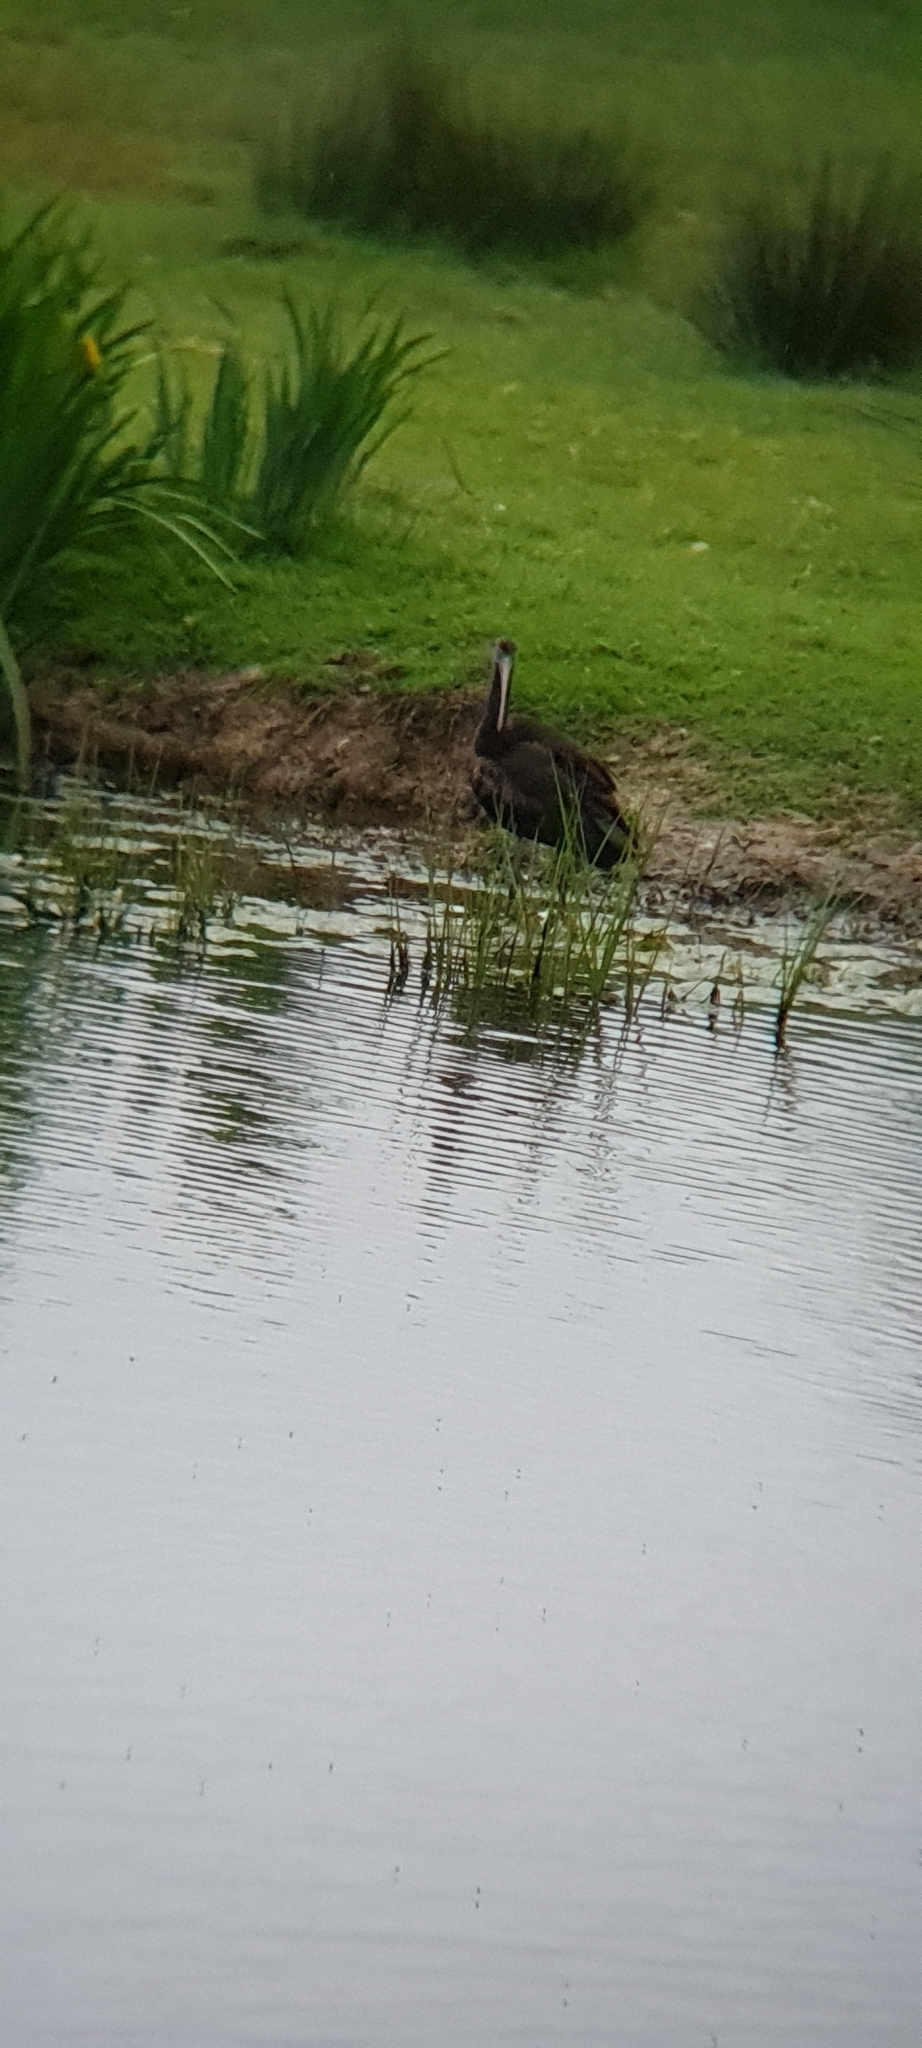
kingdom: Animalia
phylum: Chordata
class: Aves
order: Pelecaniformes
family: Threskiornithidae
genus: Plegadis
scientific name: Plegadis falcinellus
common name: Glossy ibis
